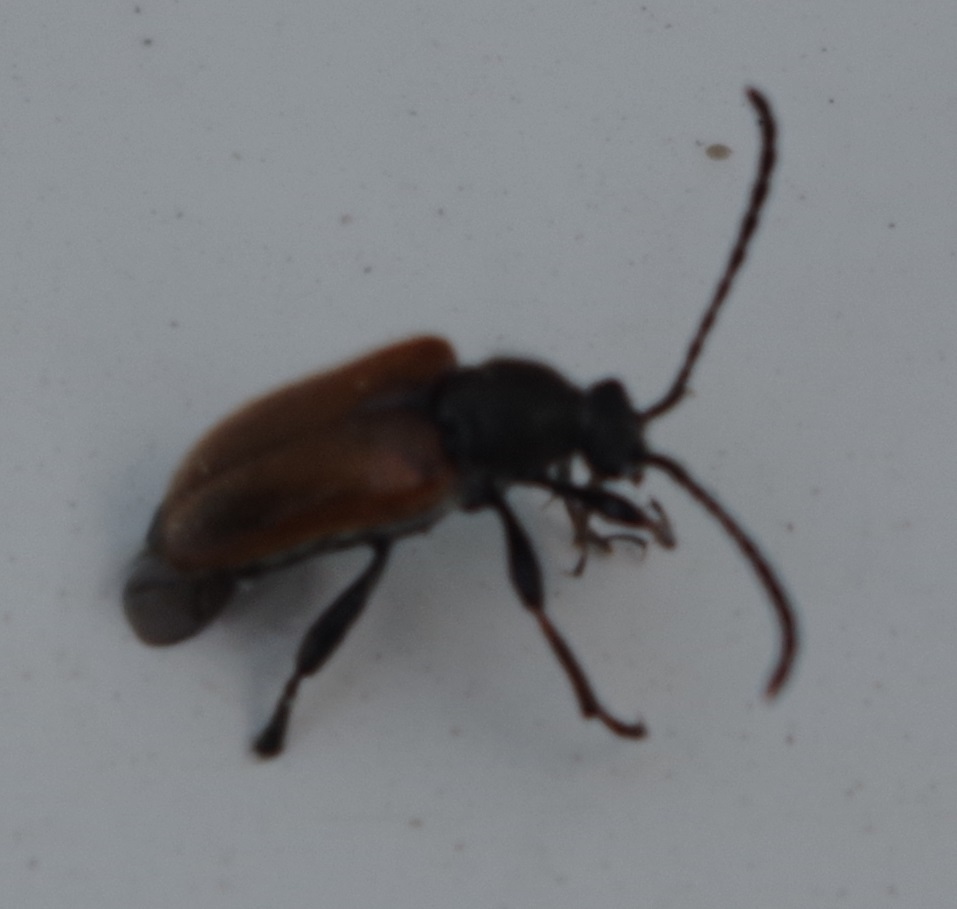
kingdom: Animalia
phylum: Arthropoda
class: Insecta
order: Coleoptera
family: Cerambycidae
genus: Pseudovadonia
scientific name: Pseudovadonia livida
